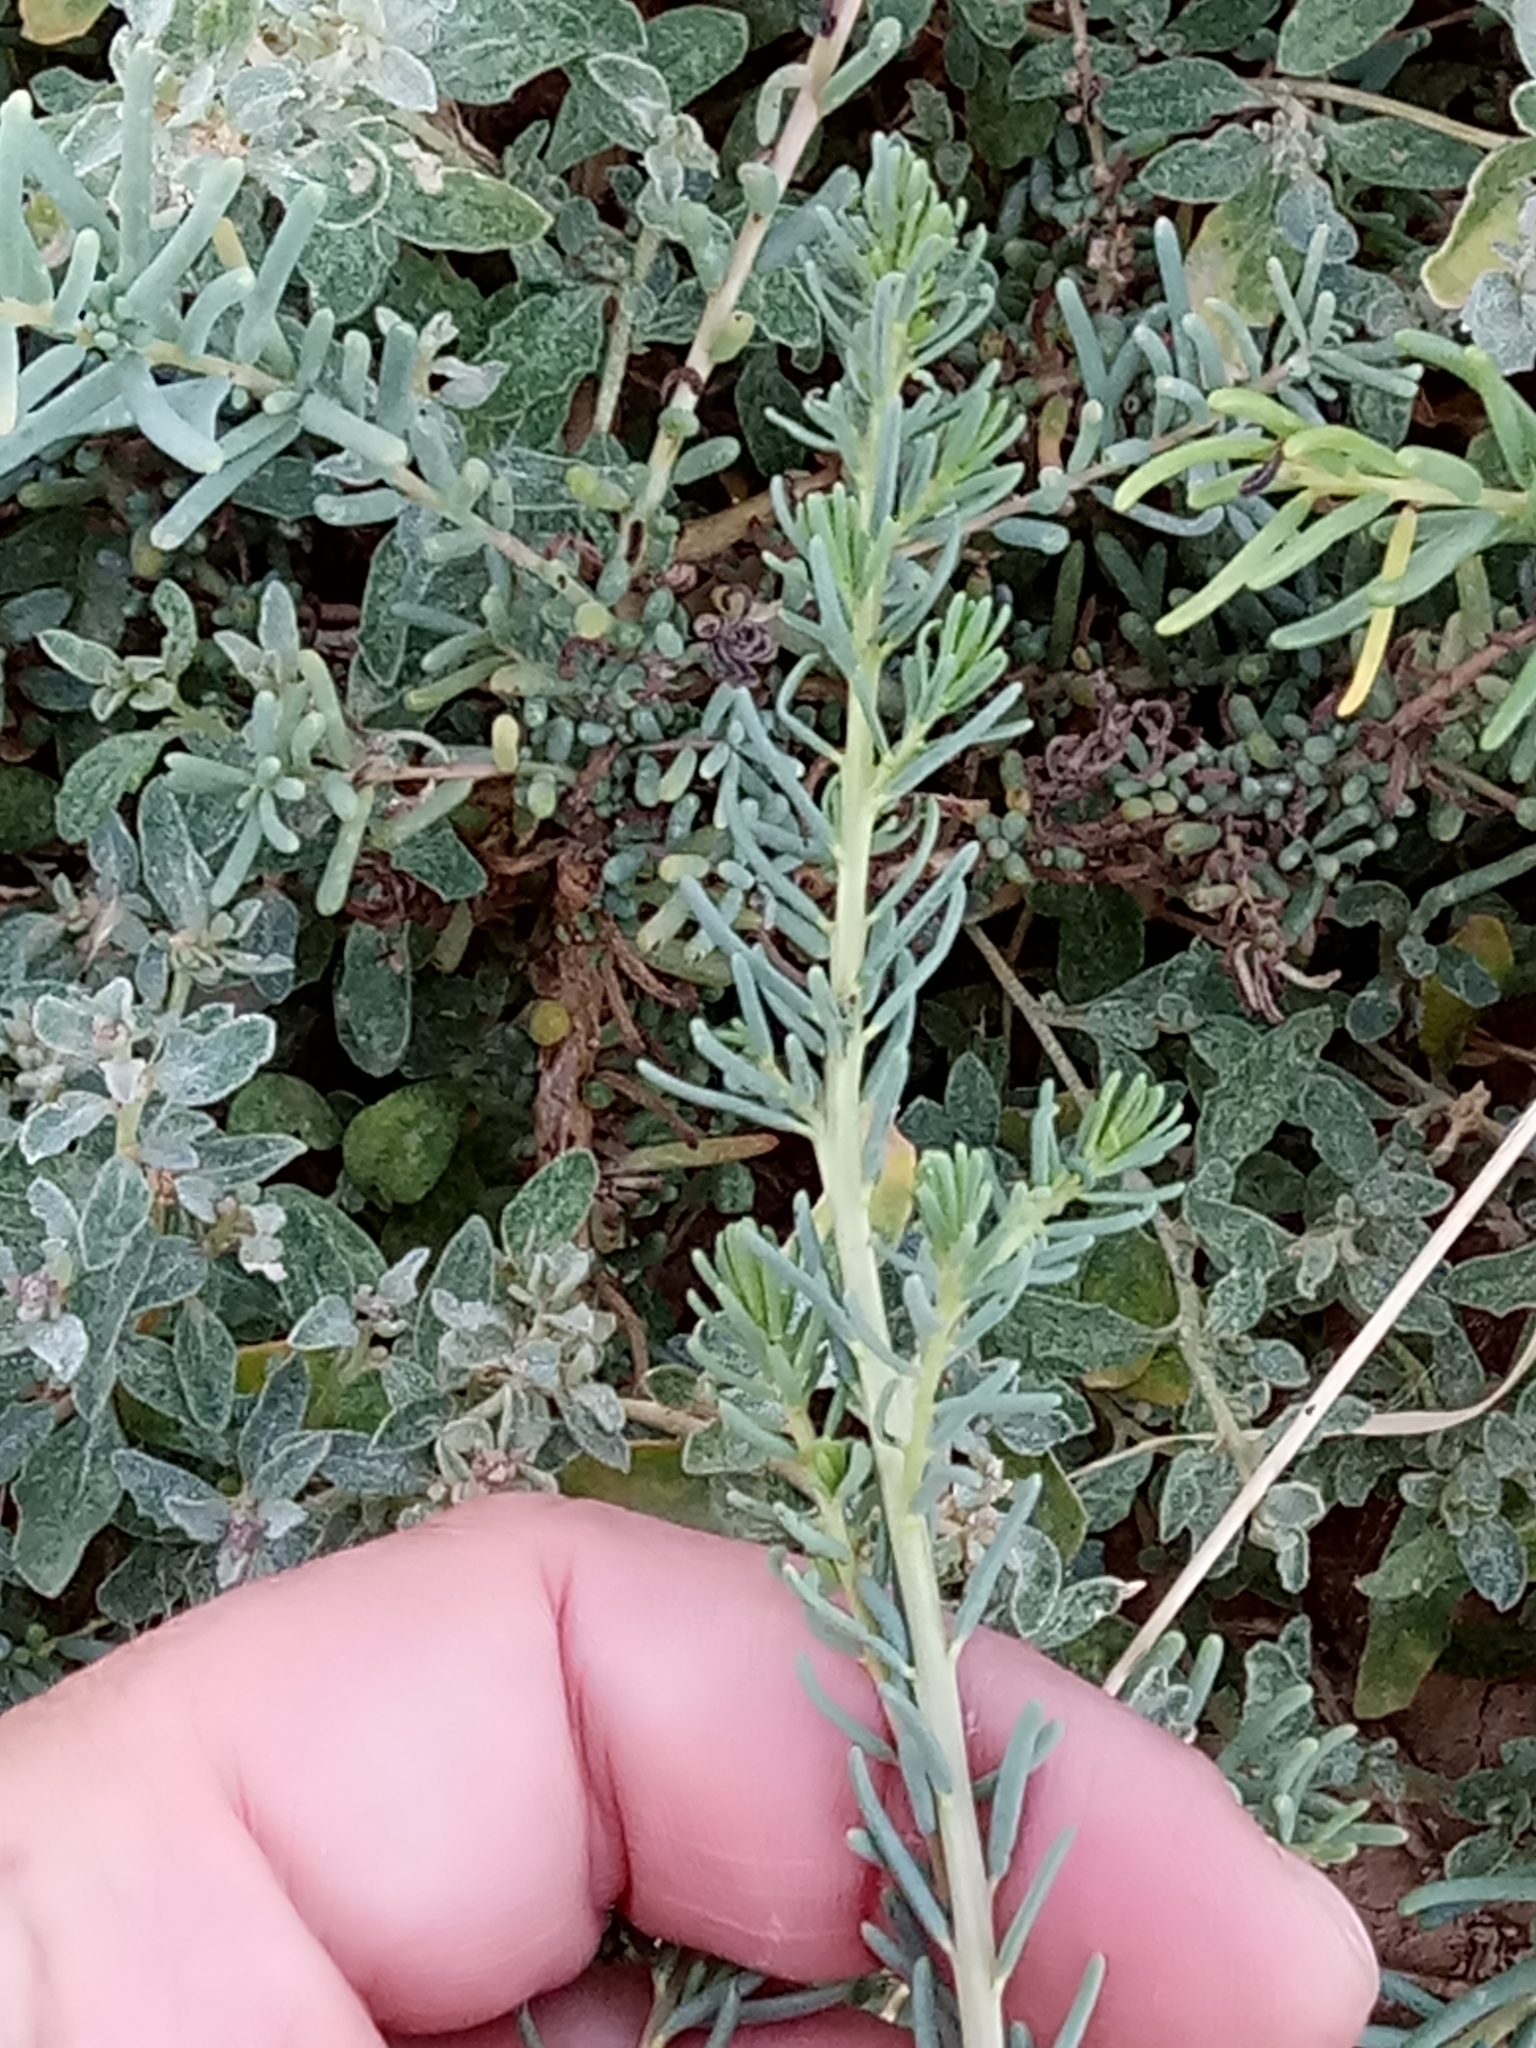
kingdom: Plantae
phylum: Tracheophyta
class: Magnoliopsida
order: Caryophyllales
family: Amaranthaceae
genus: Suaeda
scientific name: Suaeda vermiculata
